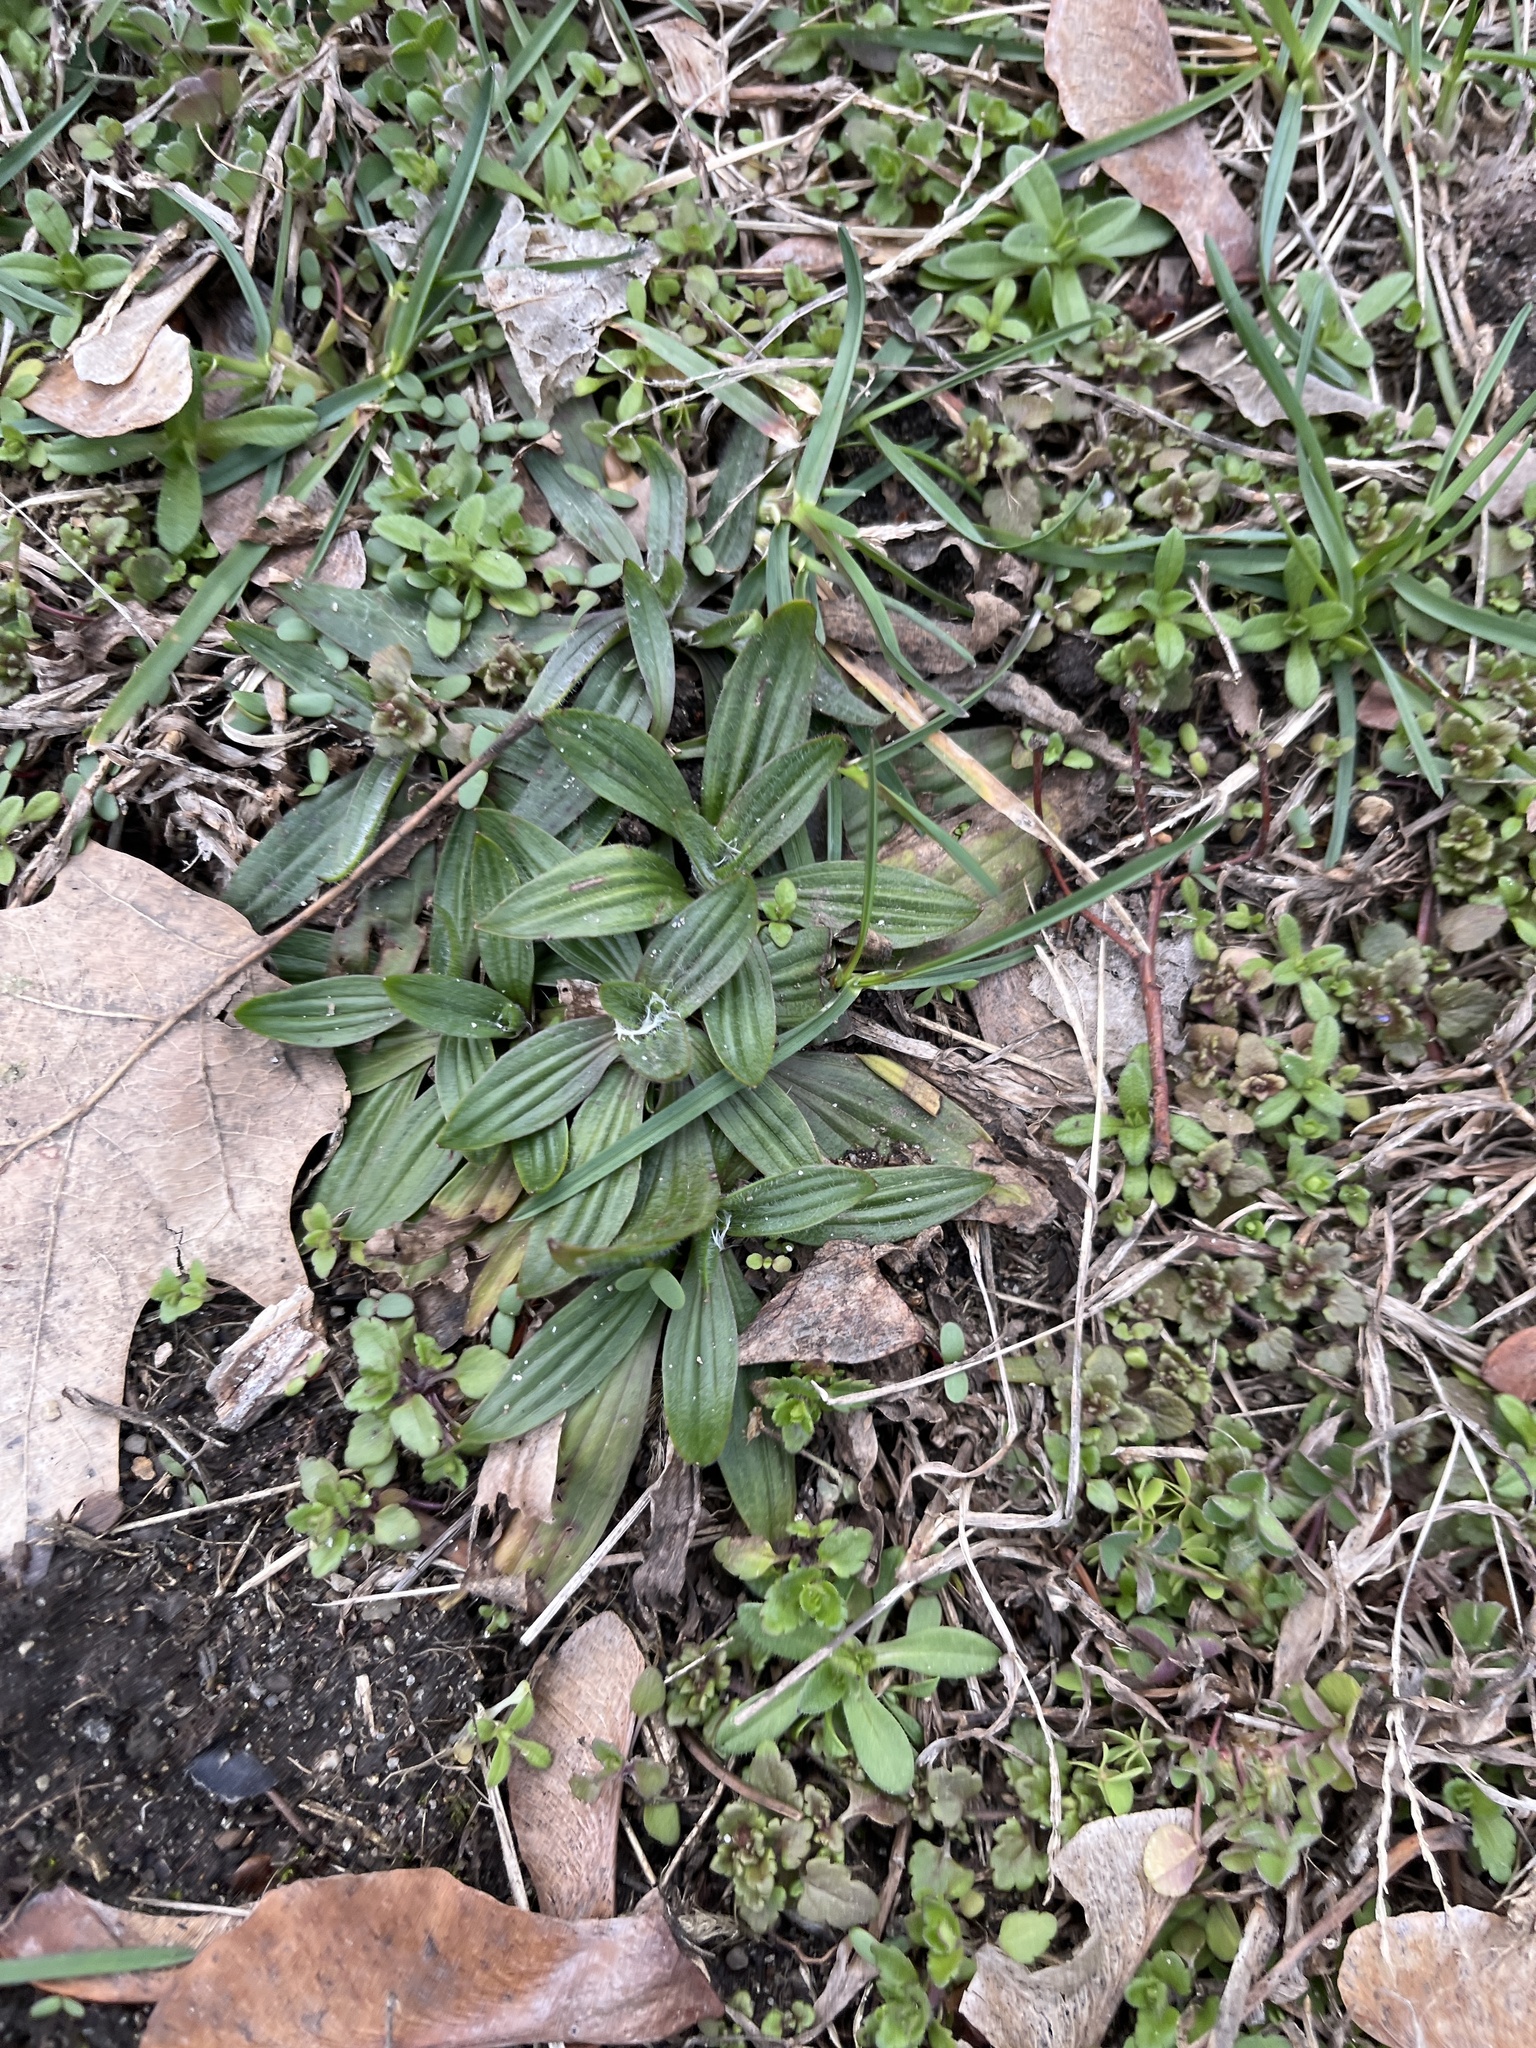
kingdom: Plantae
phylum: Tracheophyta
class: Magnoliopsida
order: Lamiales
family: Plantaginaceae
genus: Plantago
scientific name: Plantago lanceolata
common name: Ribwort plantain
